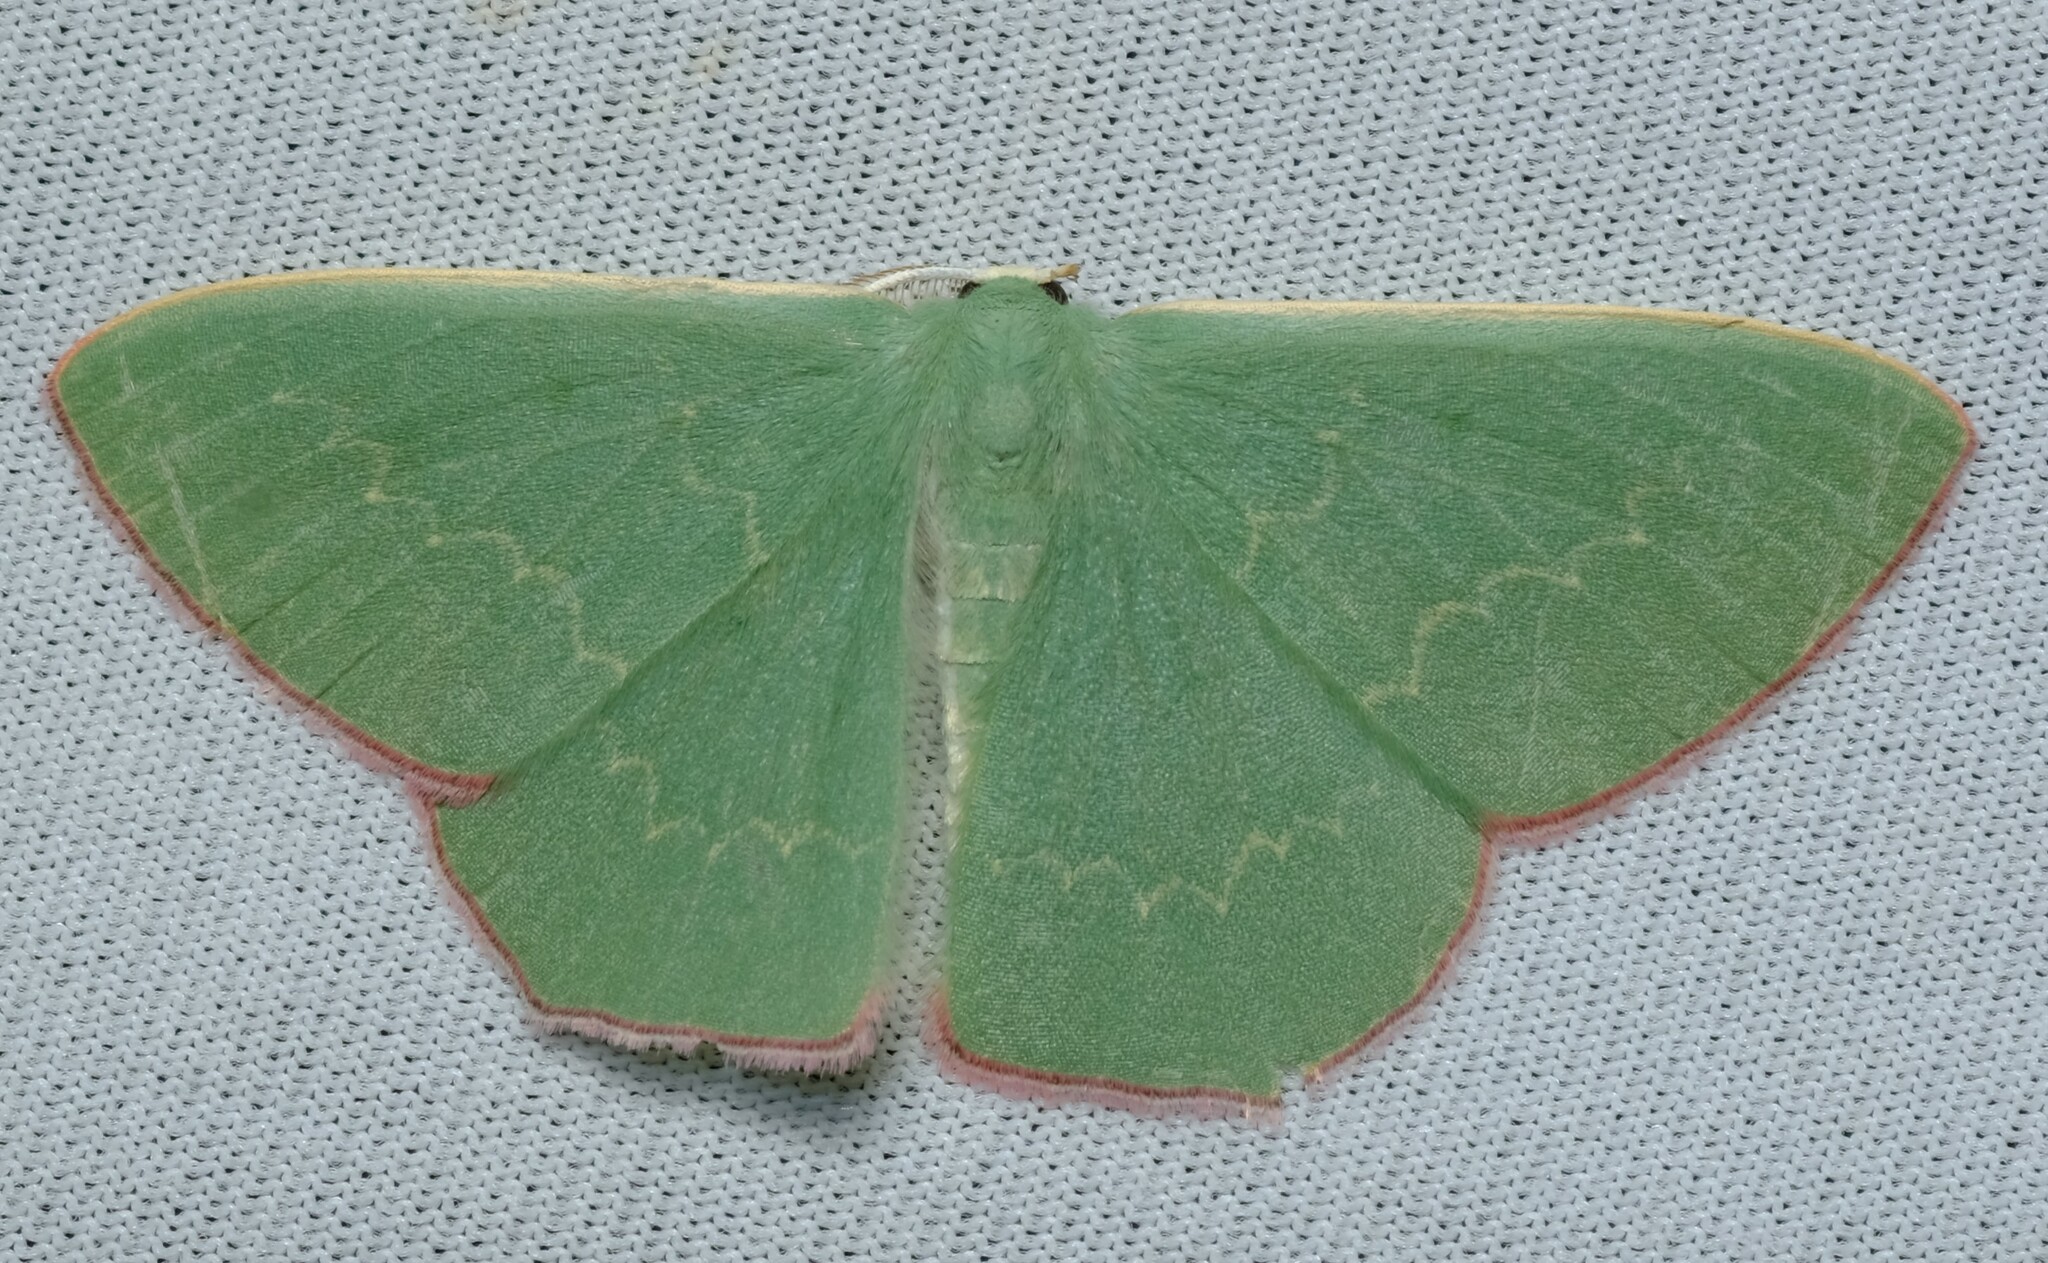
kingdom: Animalia
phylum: Arthropoda
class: Insecta
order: Lepidoptera
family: Geometridae
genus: Prasinocyma
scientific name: Prasinocyma semicrocea
